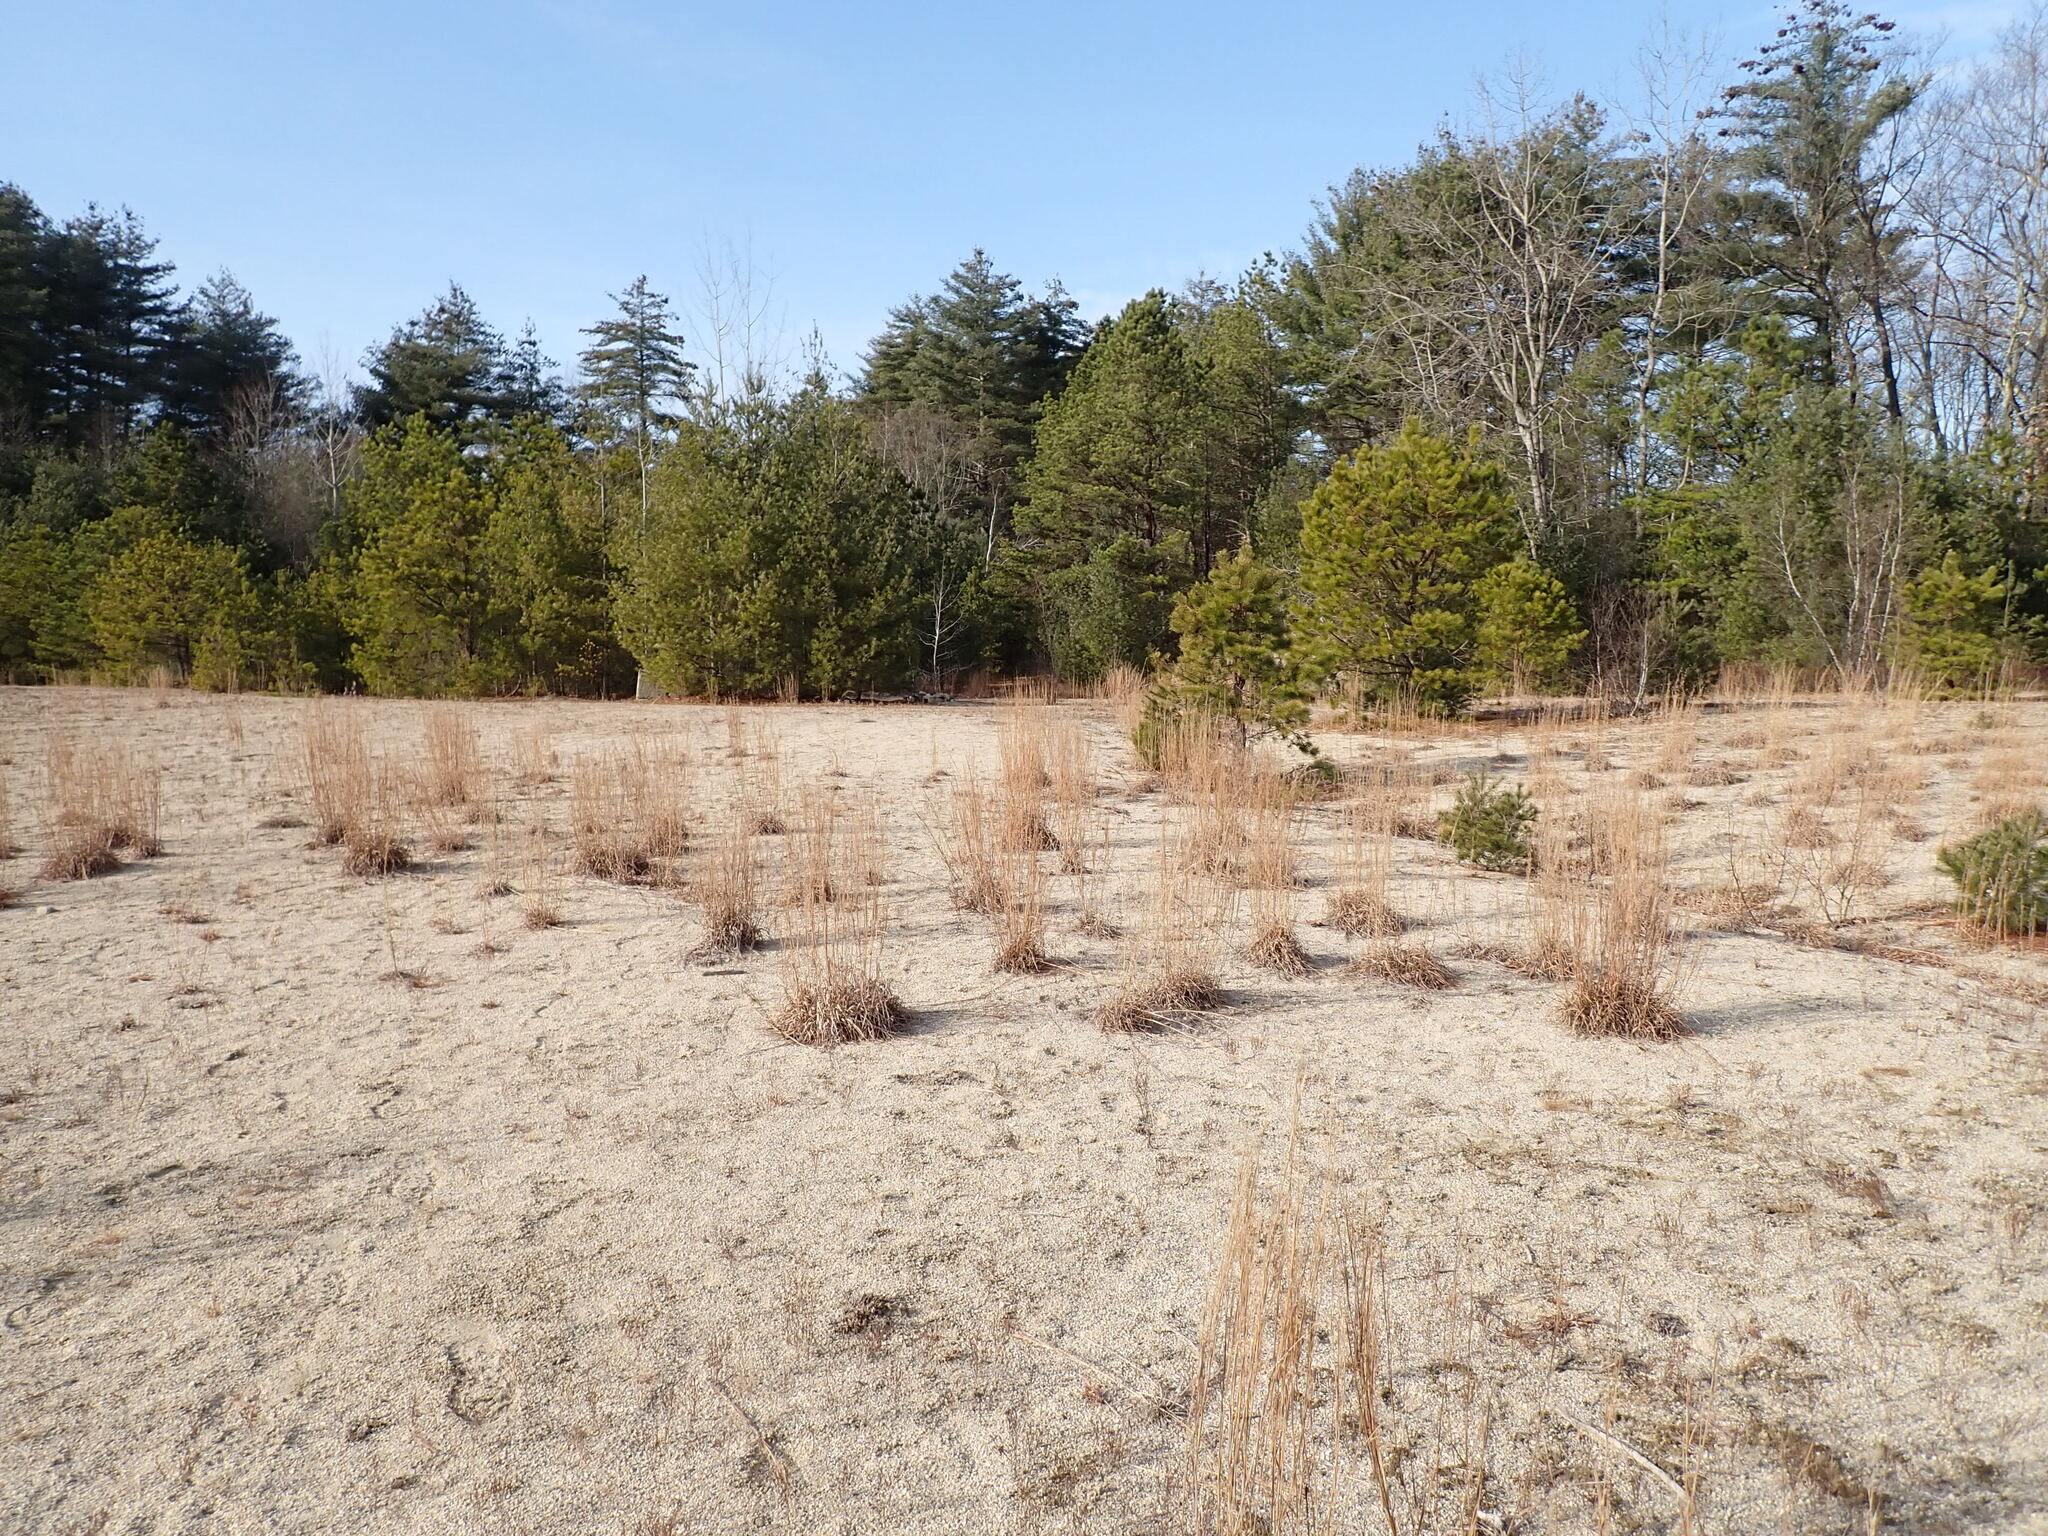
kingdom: Plantae
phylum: Tracheophyta
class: Liliopsida
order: Poales
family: Poaceae
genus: Schizachyrium
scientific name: Schizachyrium scoparium
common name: Little bluestem
